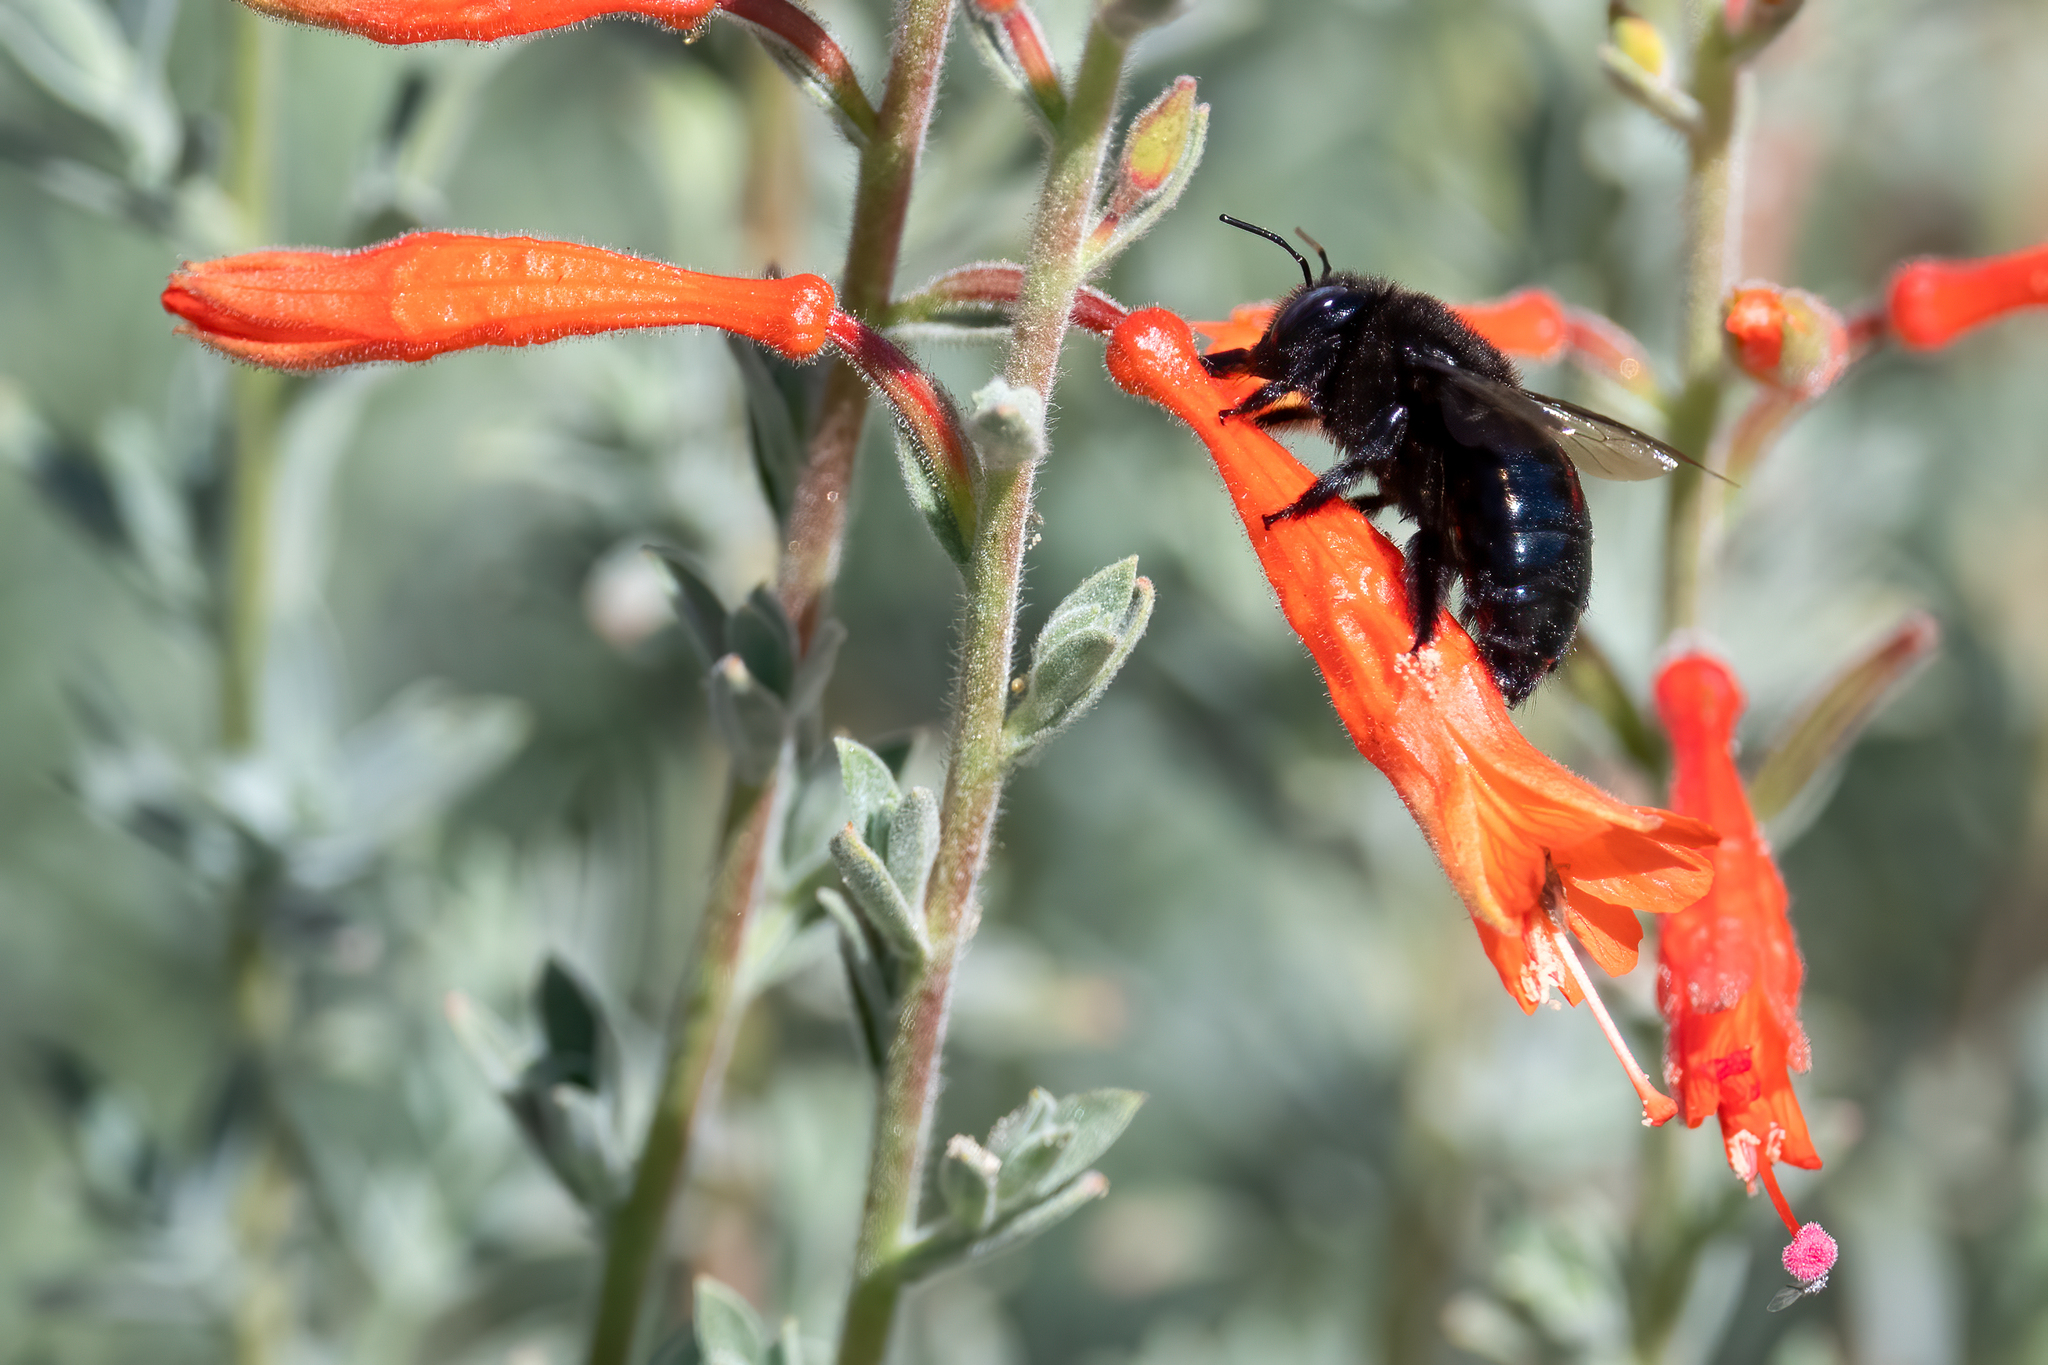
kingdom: Animalia
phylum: Arthropoda
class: Insecta
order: Hymenoptera
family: Apidae
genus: Xylocopa
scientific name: Xylocopa tabaniformis
